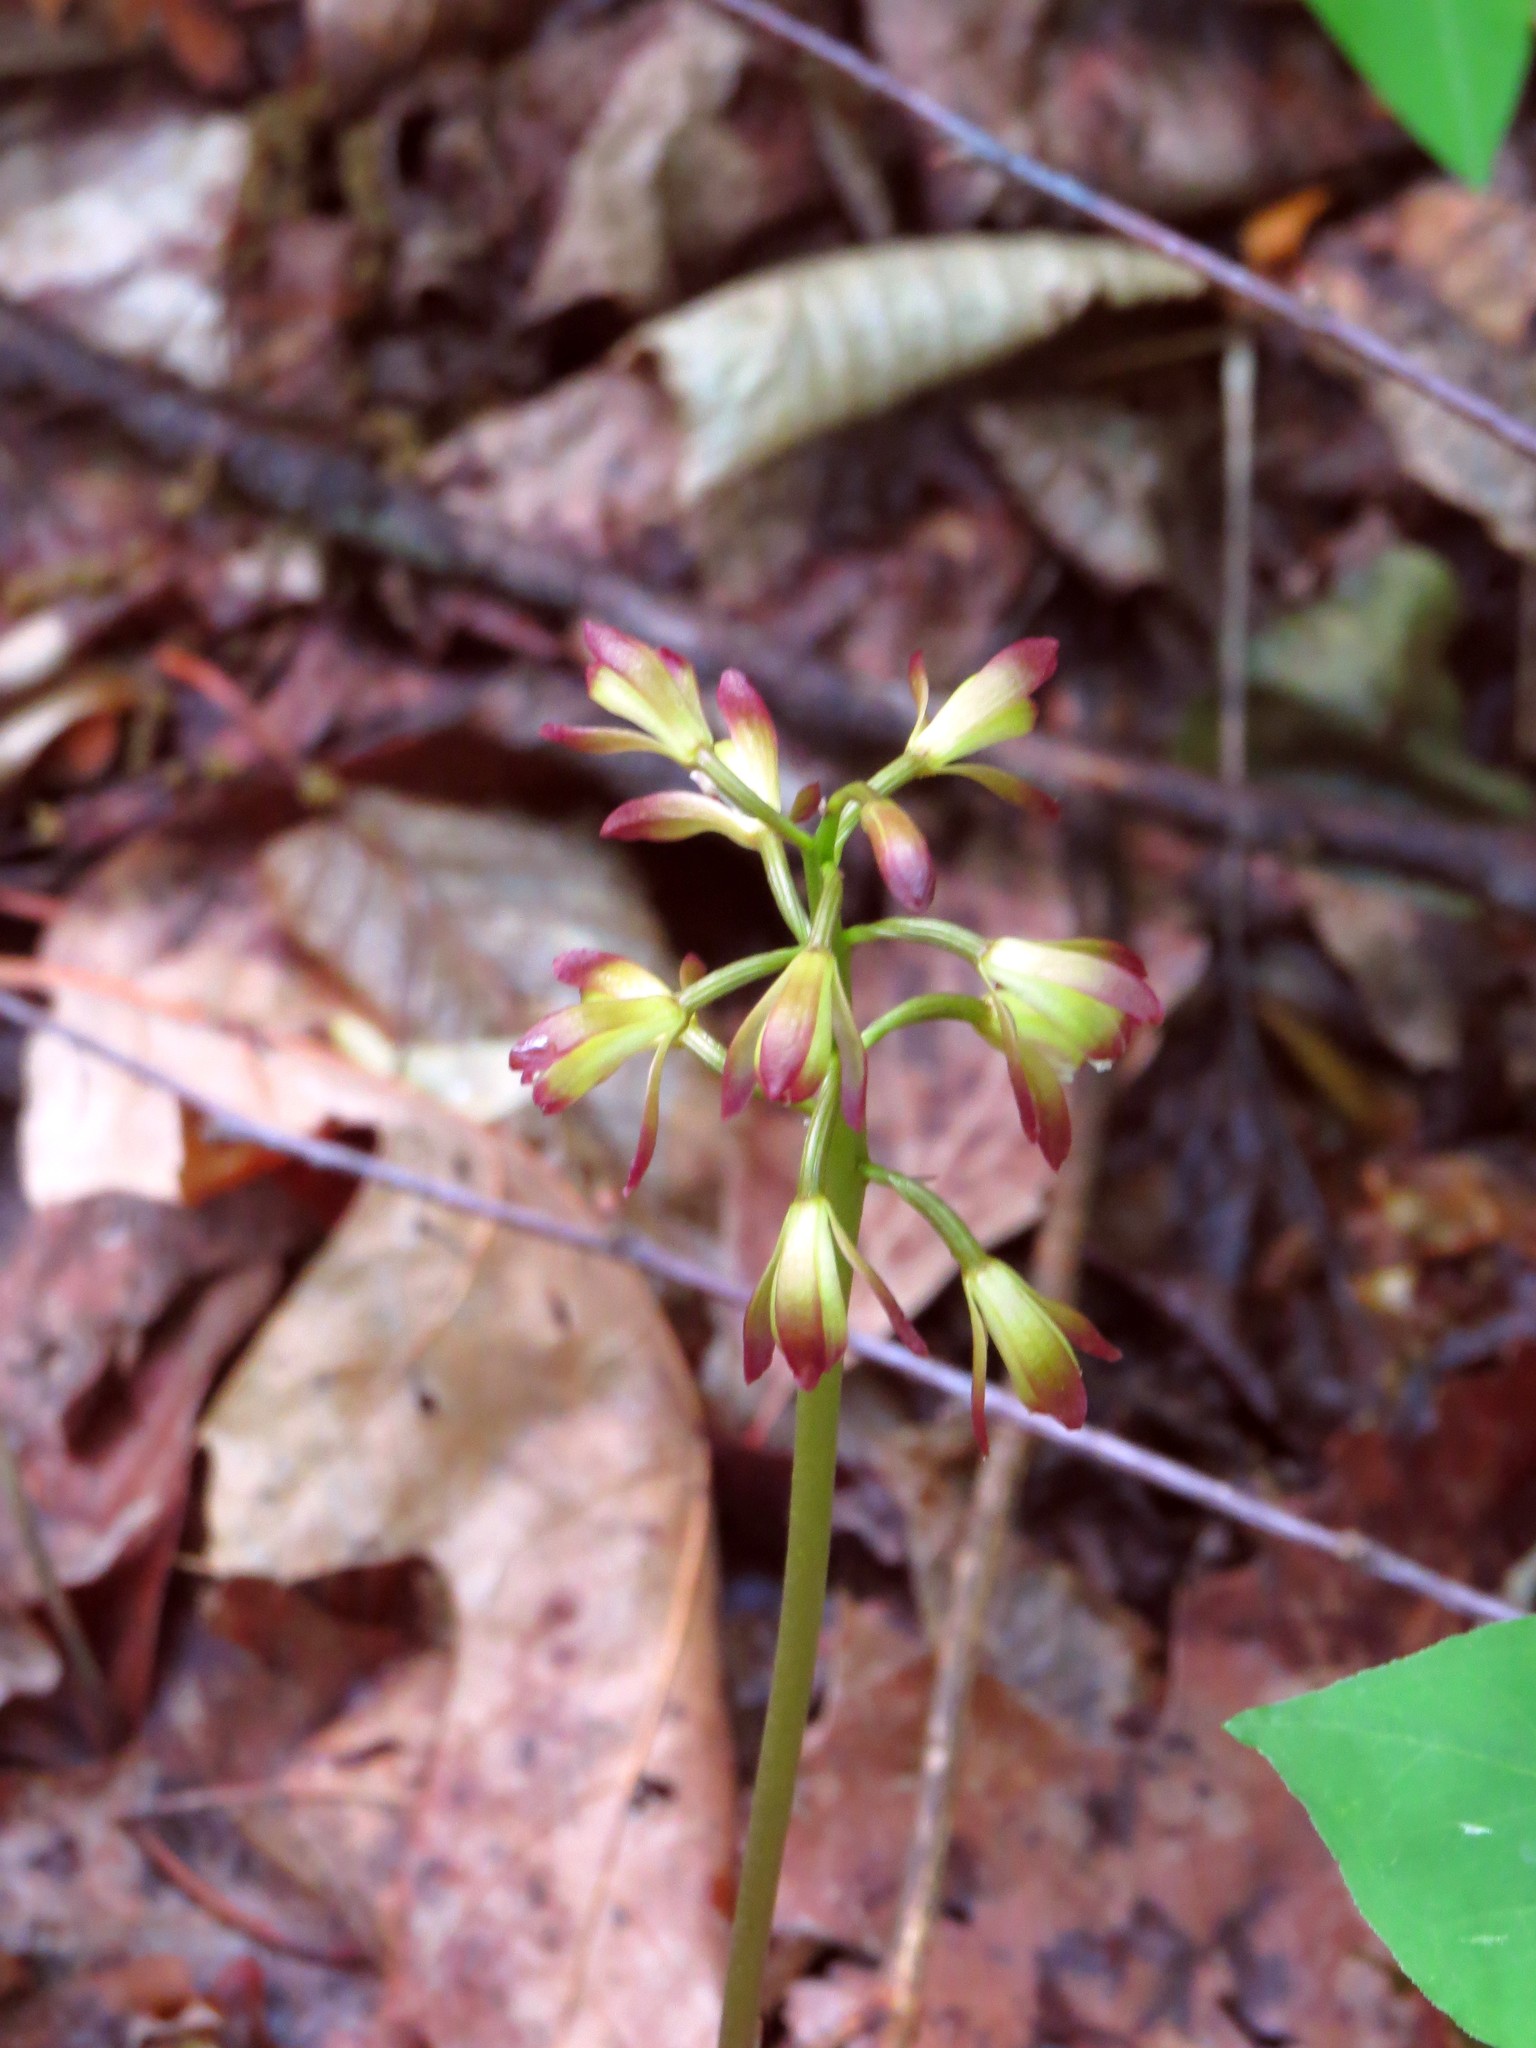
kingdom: Plantae
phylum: Tracheophyta
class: Liliopsida
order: Asparagales
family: Orchidaceae
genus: Aplectrum
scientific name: Aplectrum hyemale
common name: Adam-and-eve
